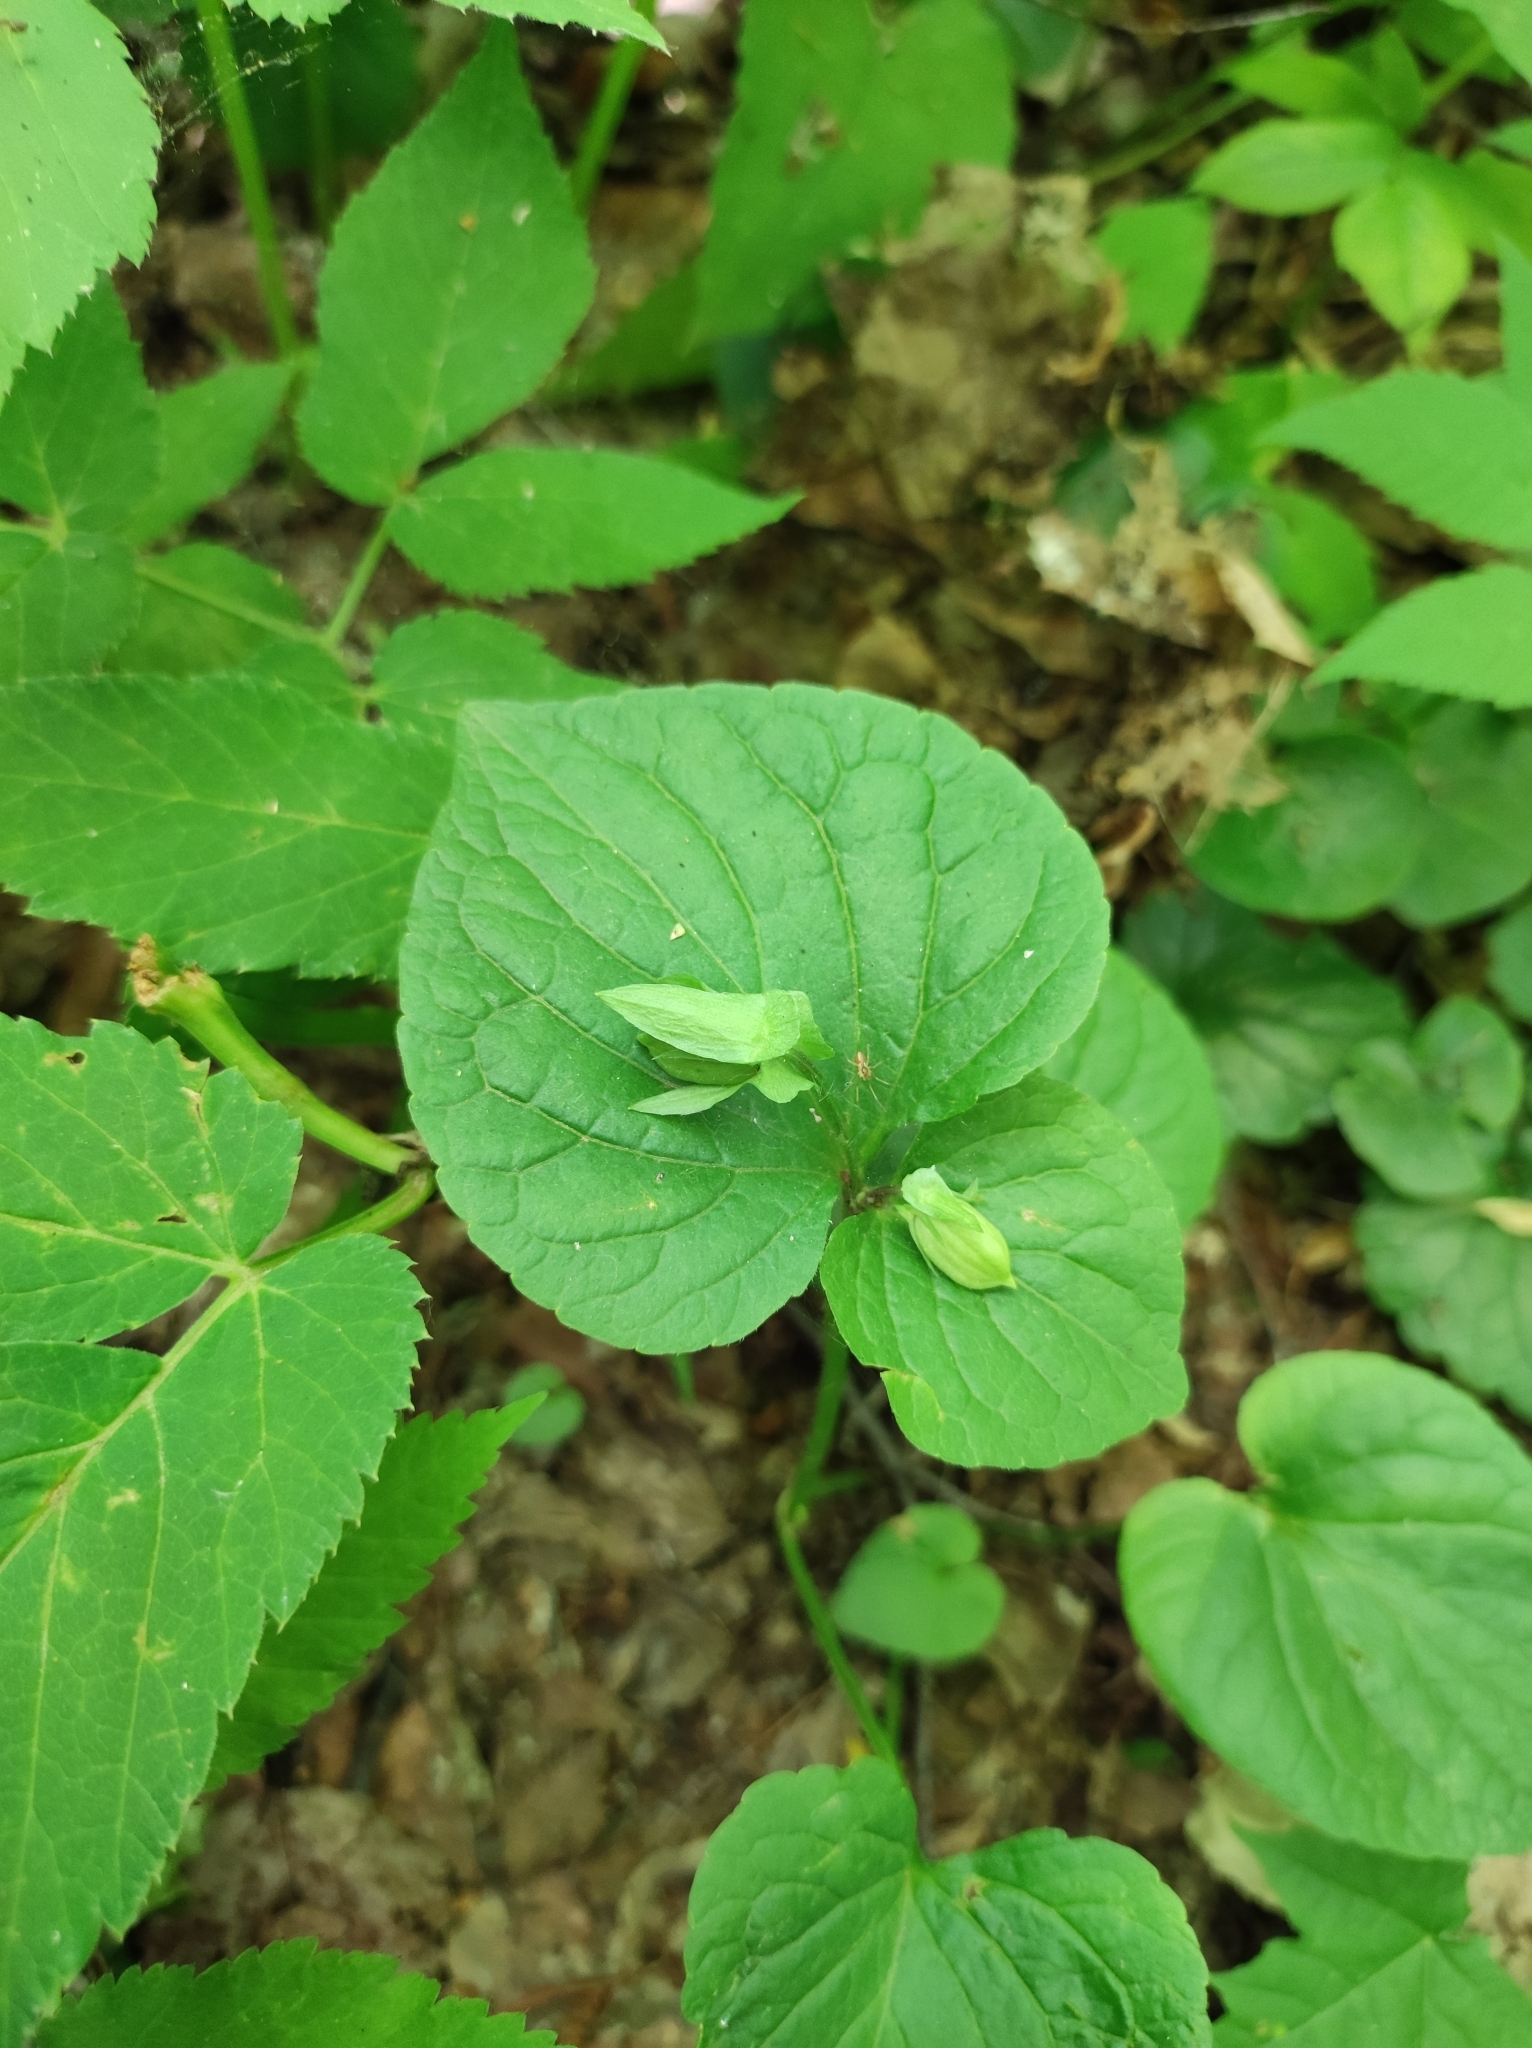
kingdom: Plantae
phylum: Tracheophyta
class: Magnoliopsida
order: Malpighiales
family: Violaceae
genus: Viola
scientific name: Viola mirabilis
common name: Wonder violet
